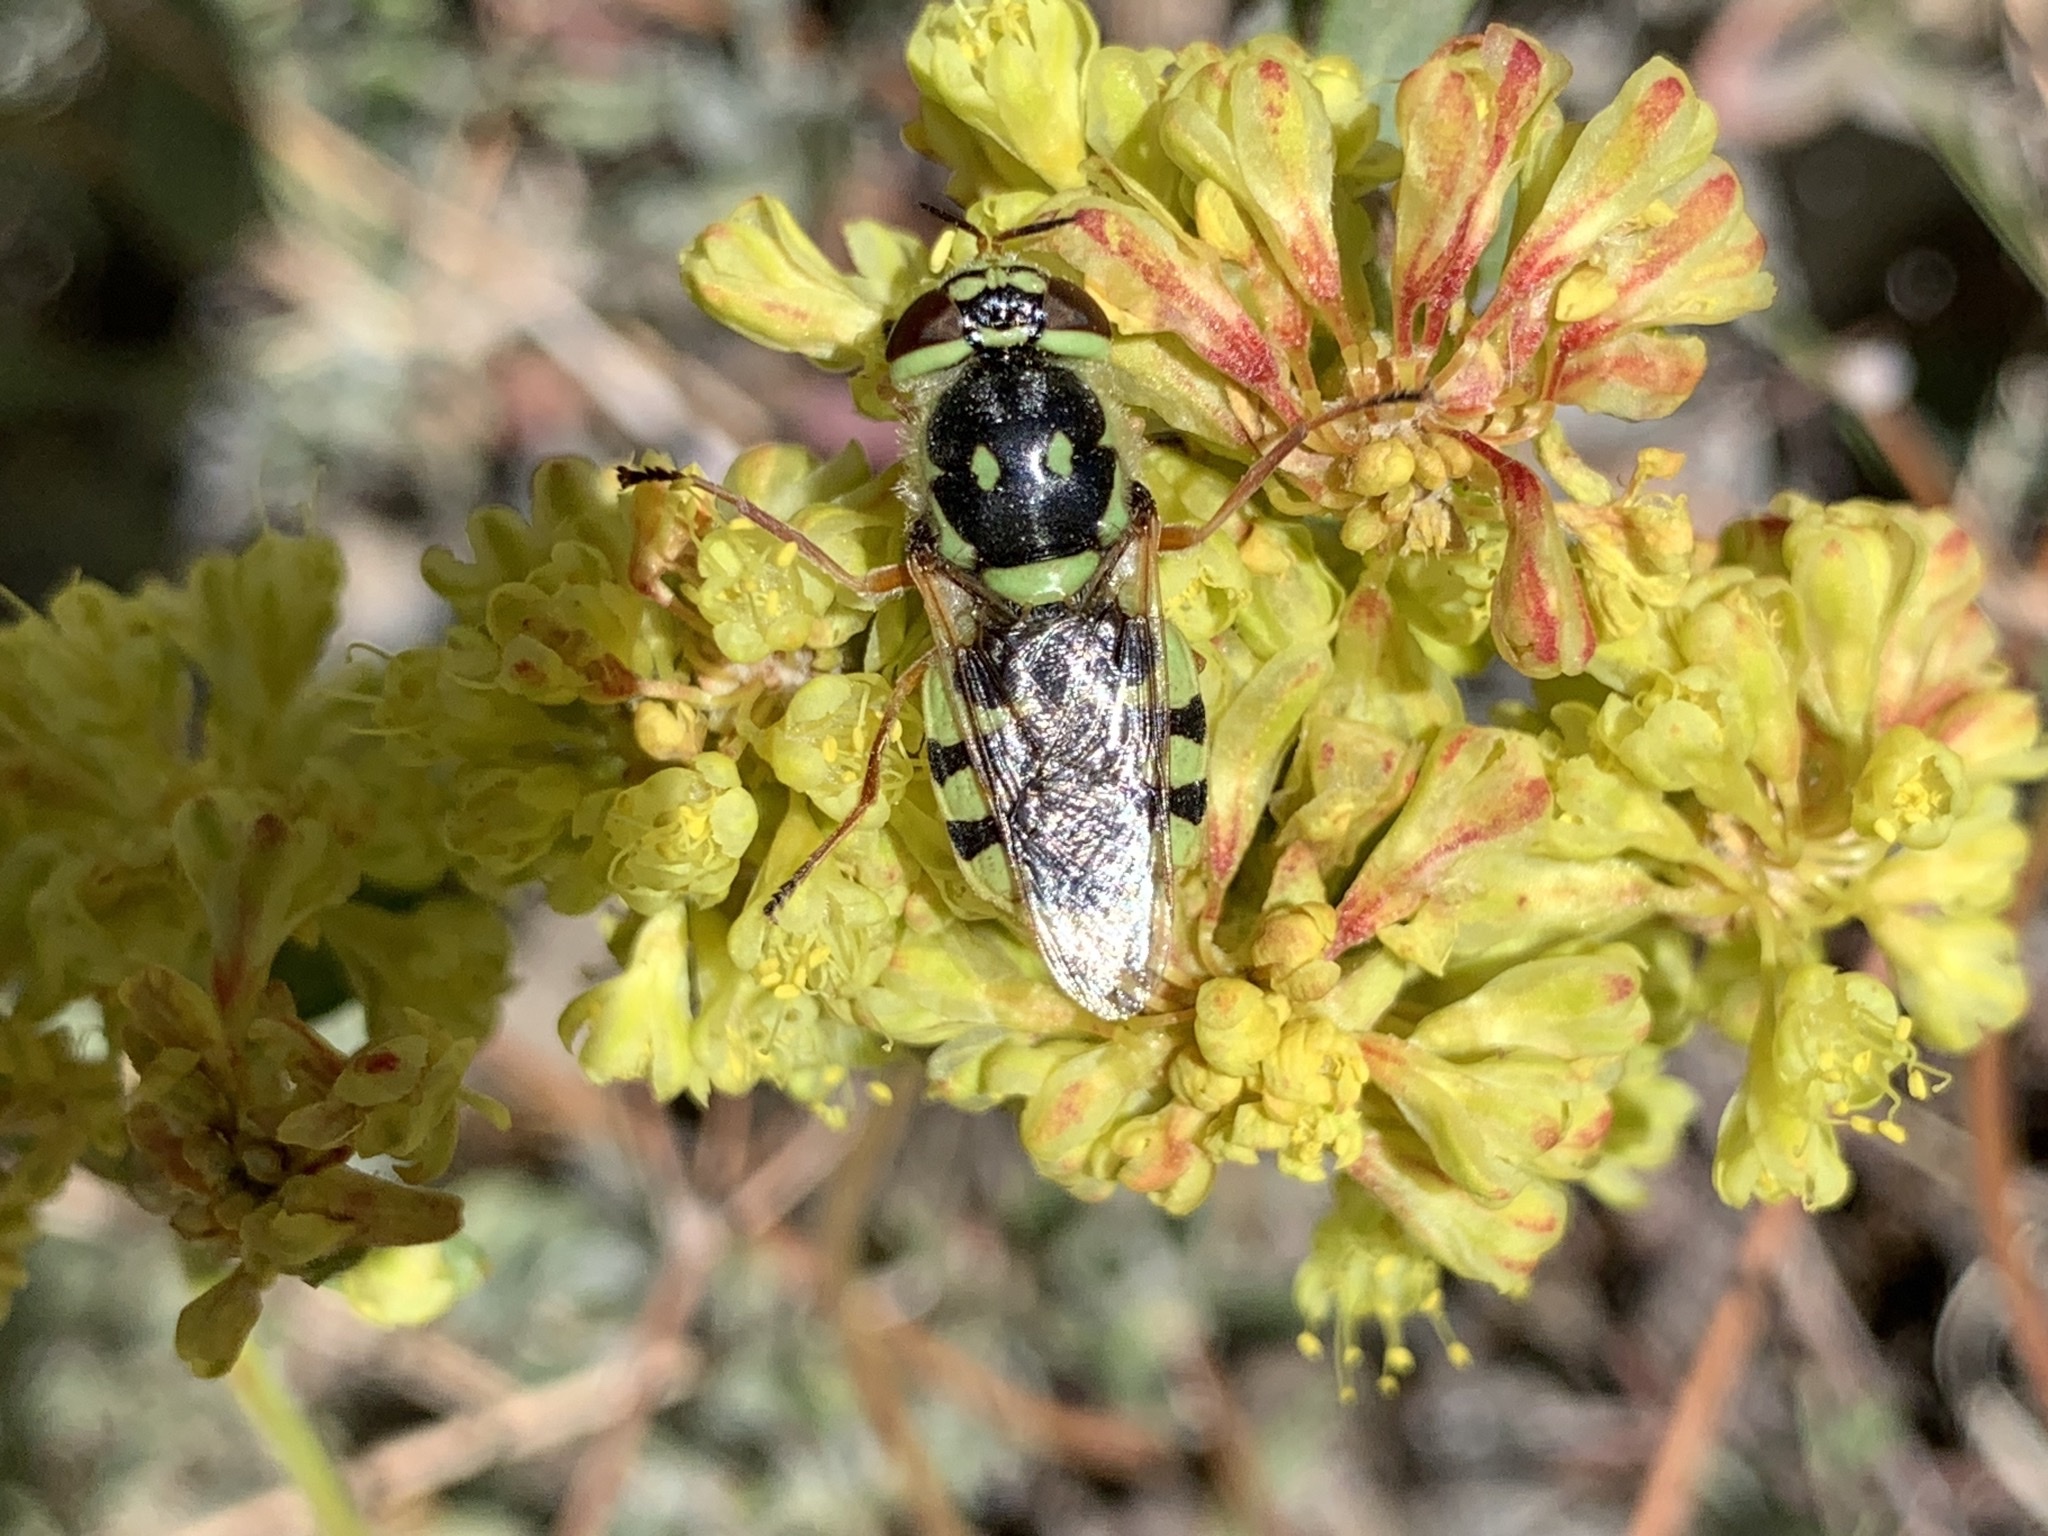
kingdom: Animalia
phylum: Arthropoda
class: Insecta
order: Diptera
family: Stratiomyidae
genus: Hedriodiscus
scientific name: Hedriodiscus binotatus
